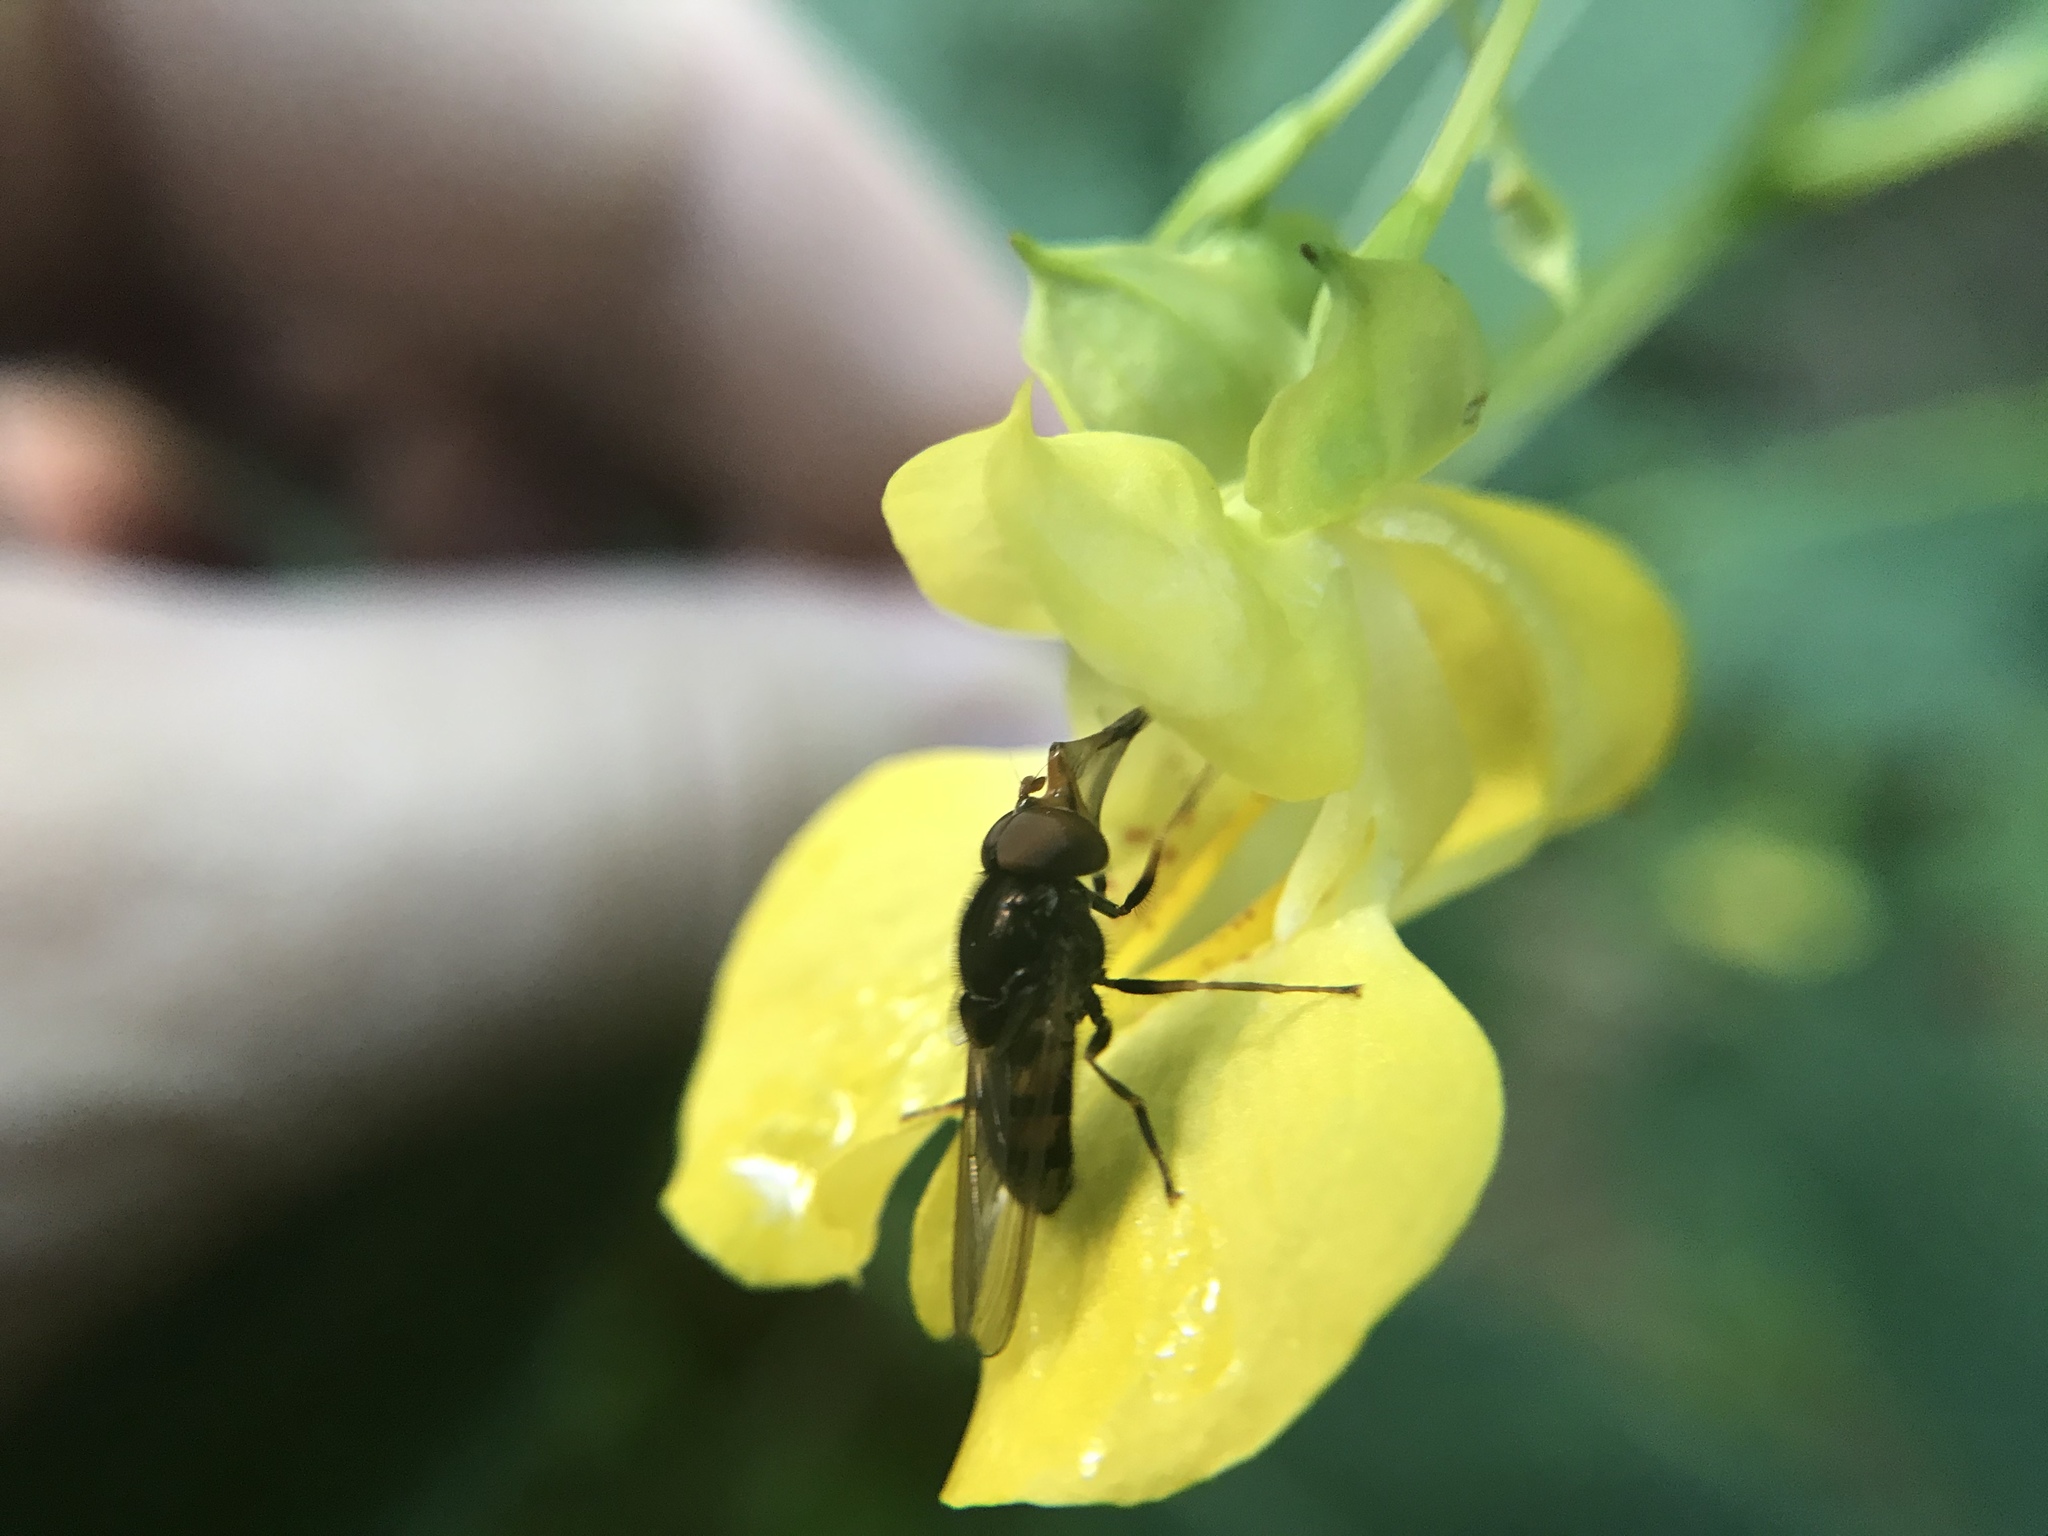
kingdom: Animalia
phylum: Arthropoda
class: Insecta
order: Diptera
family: Syrphidae
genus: Rhingia
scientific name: Rhingia nasica
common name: American snout fly
